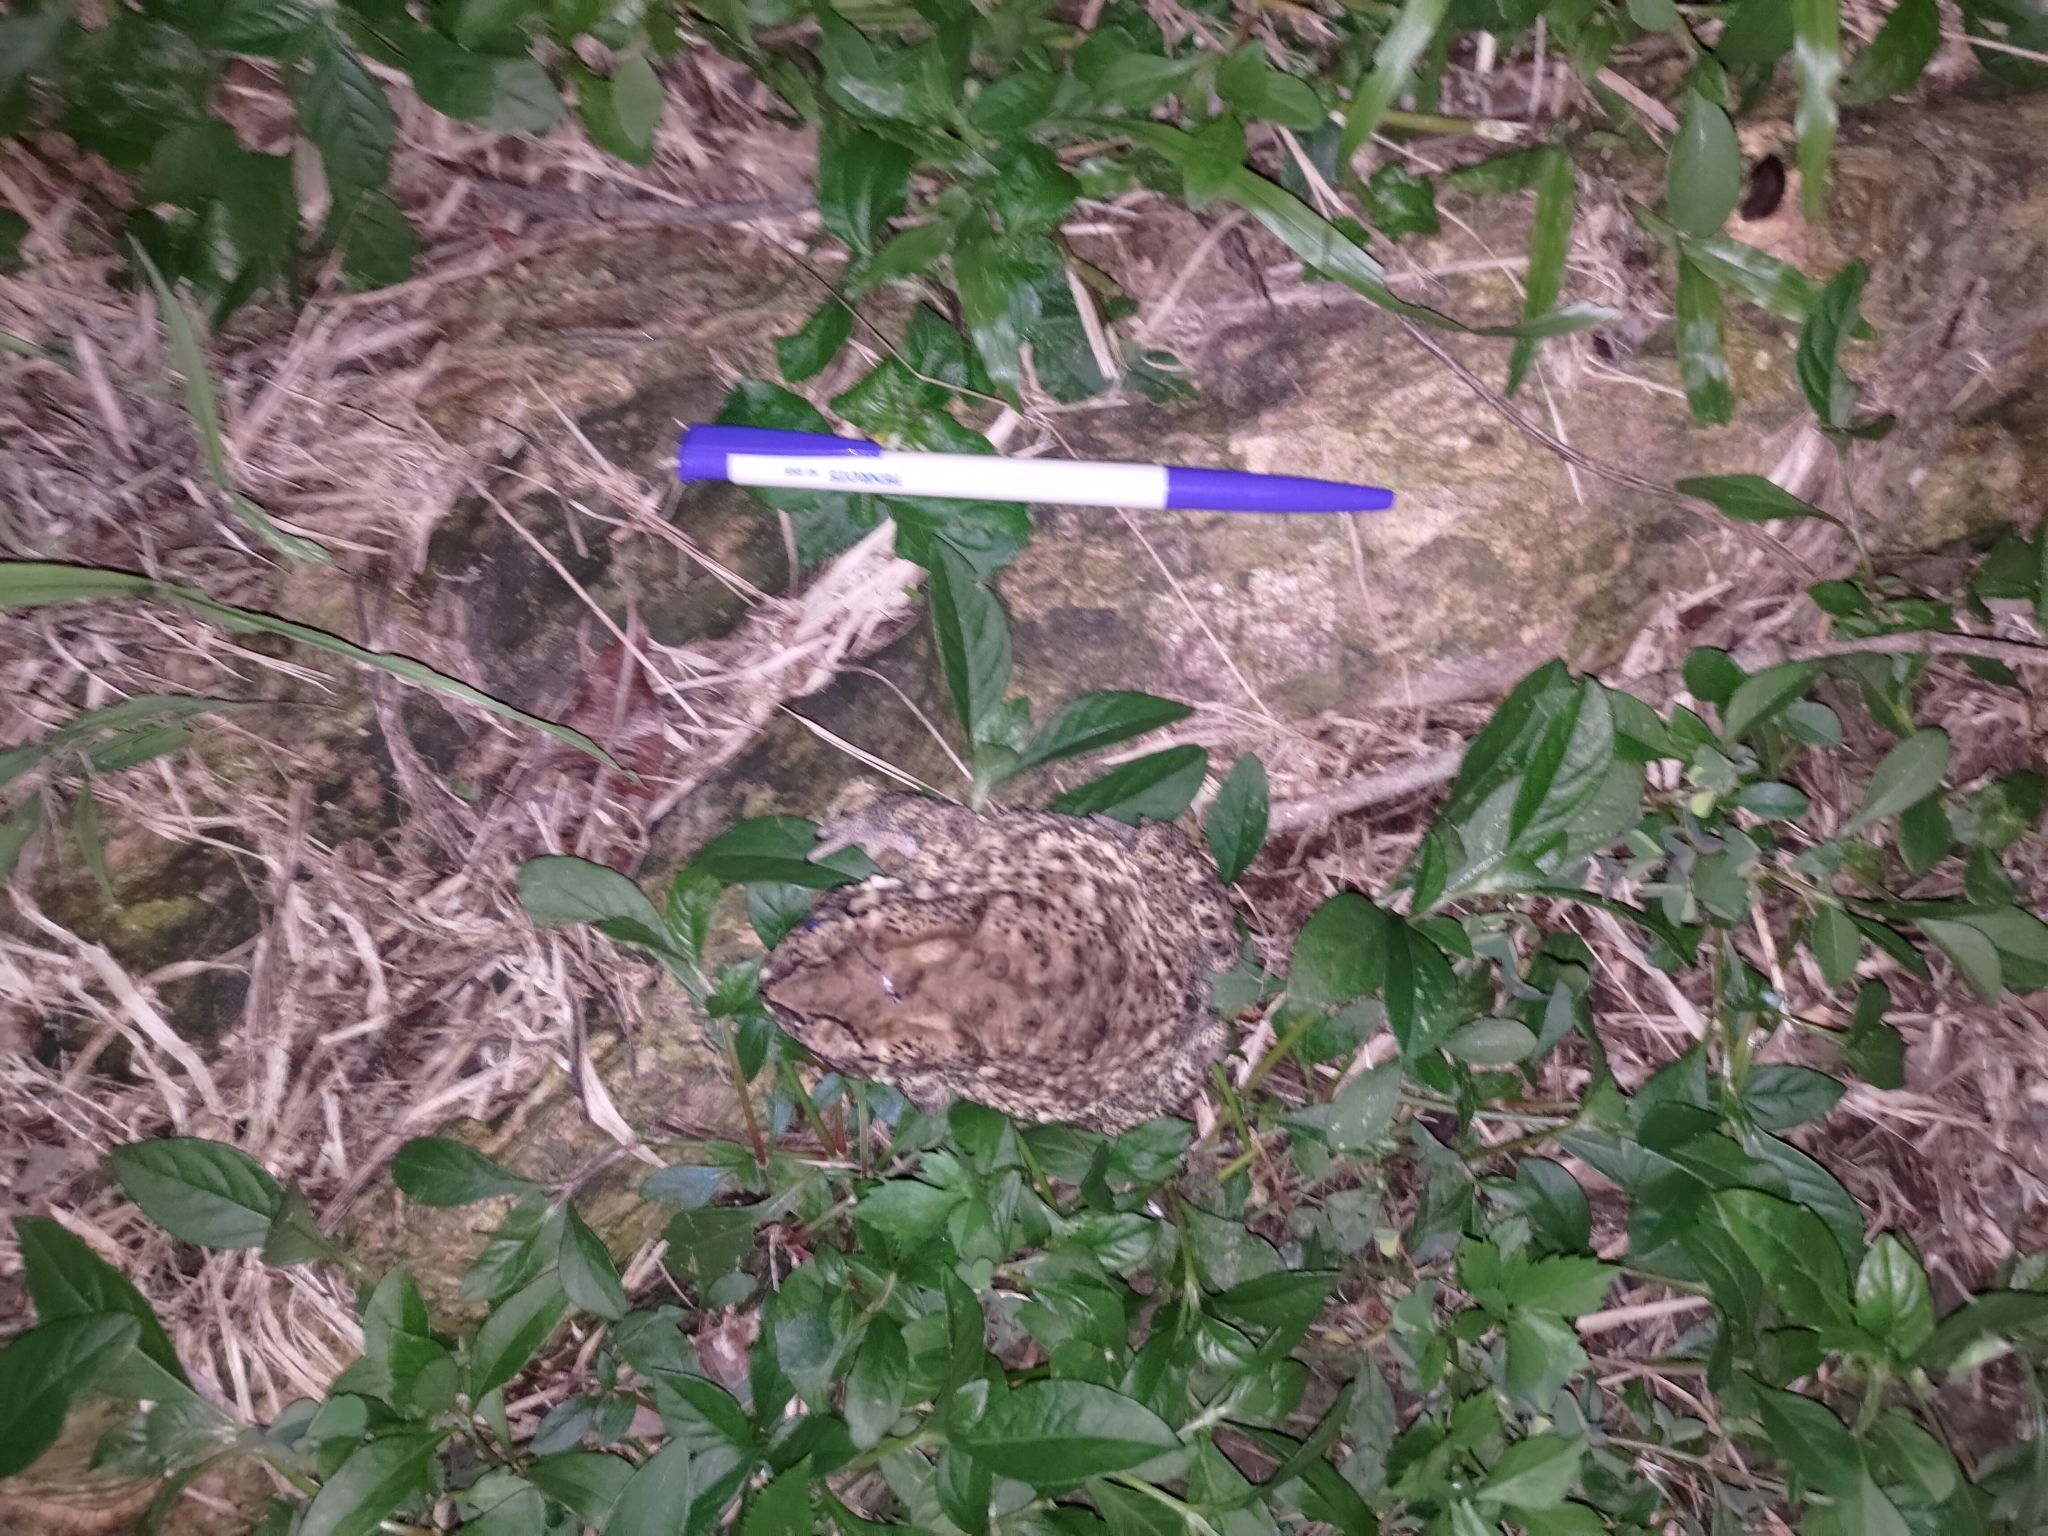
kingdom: Animalia
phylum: Chordata
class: Amphibia
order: Anura
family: Bufonidae
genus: Duttaphrynus
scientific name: Duttaphrynus melanostictus
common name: Common sunda toad
